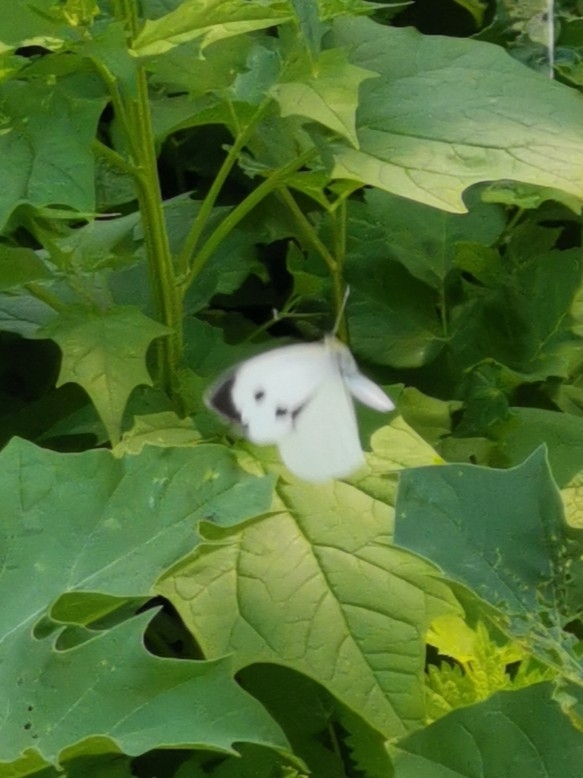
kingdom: Animalia
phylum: Arthropoda
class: Insecta
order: Lepidoptera
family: Pieridae
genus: Pieris
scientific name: Pieris brassicae
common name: Large white
